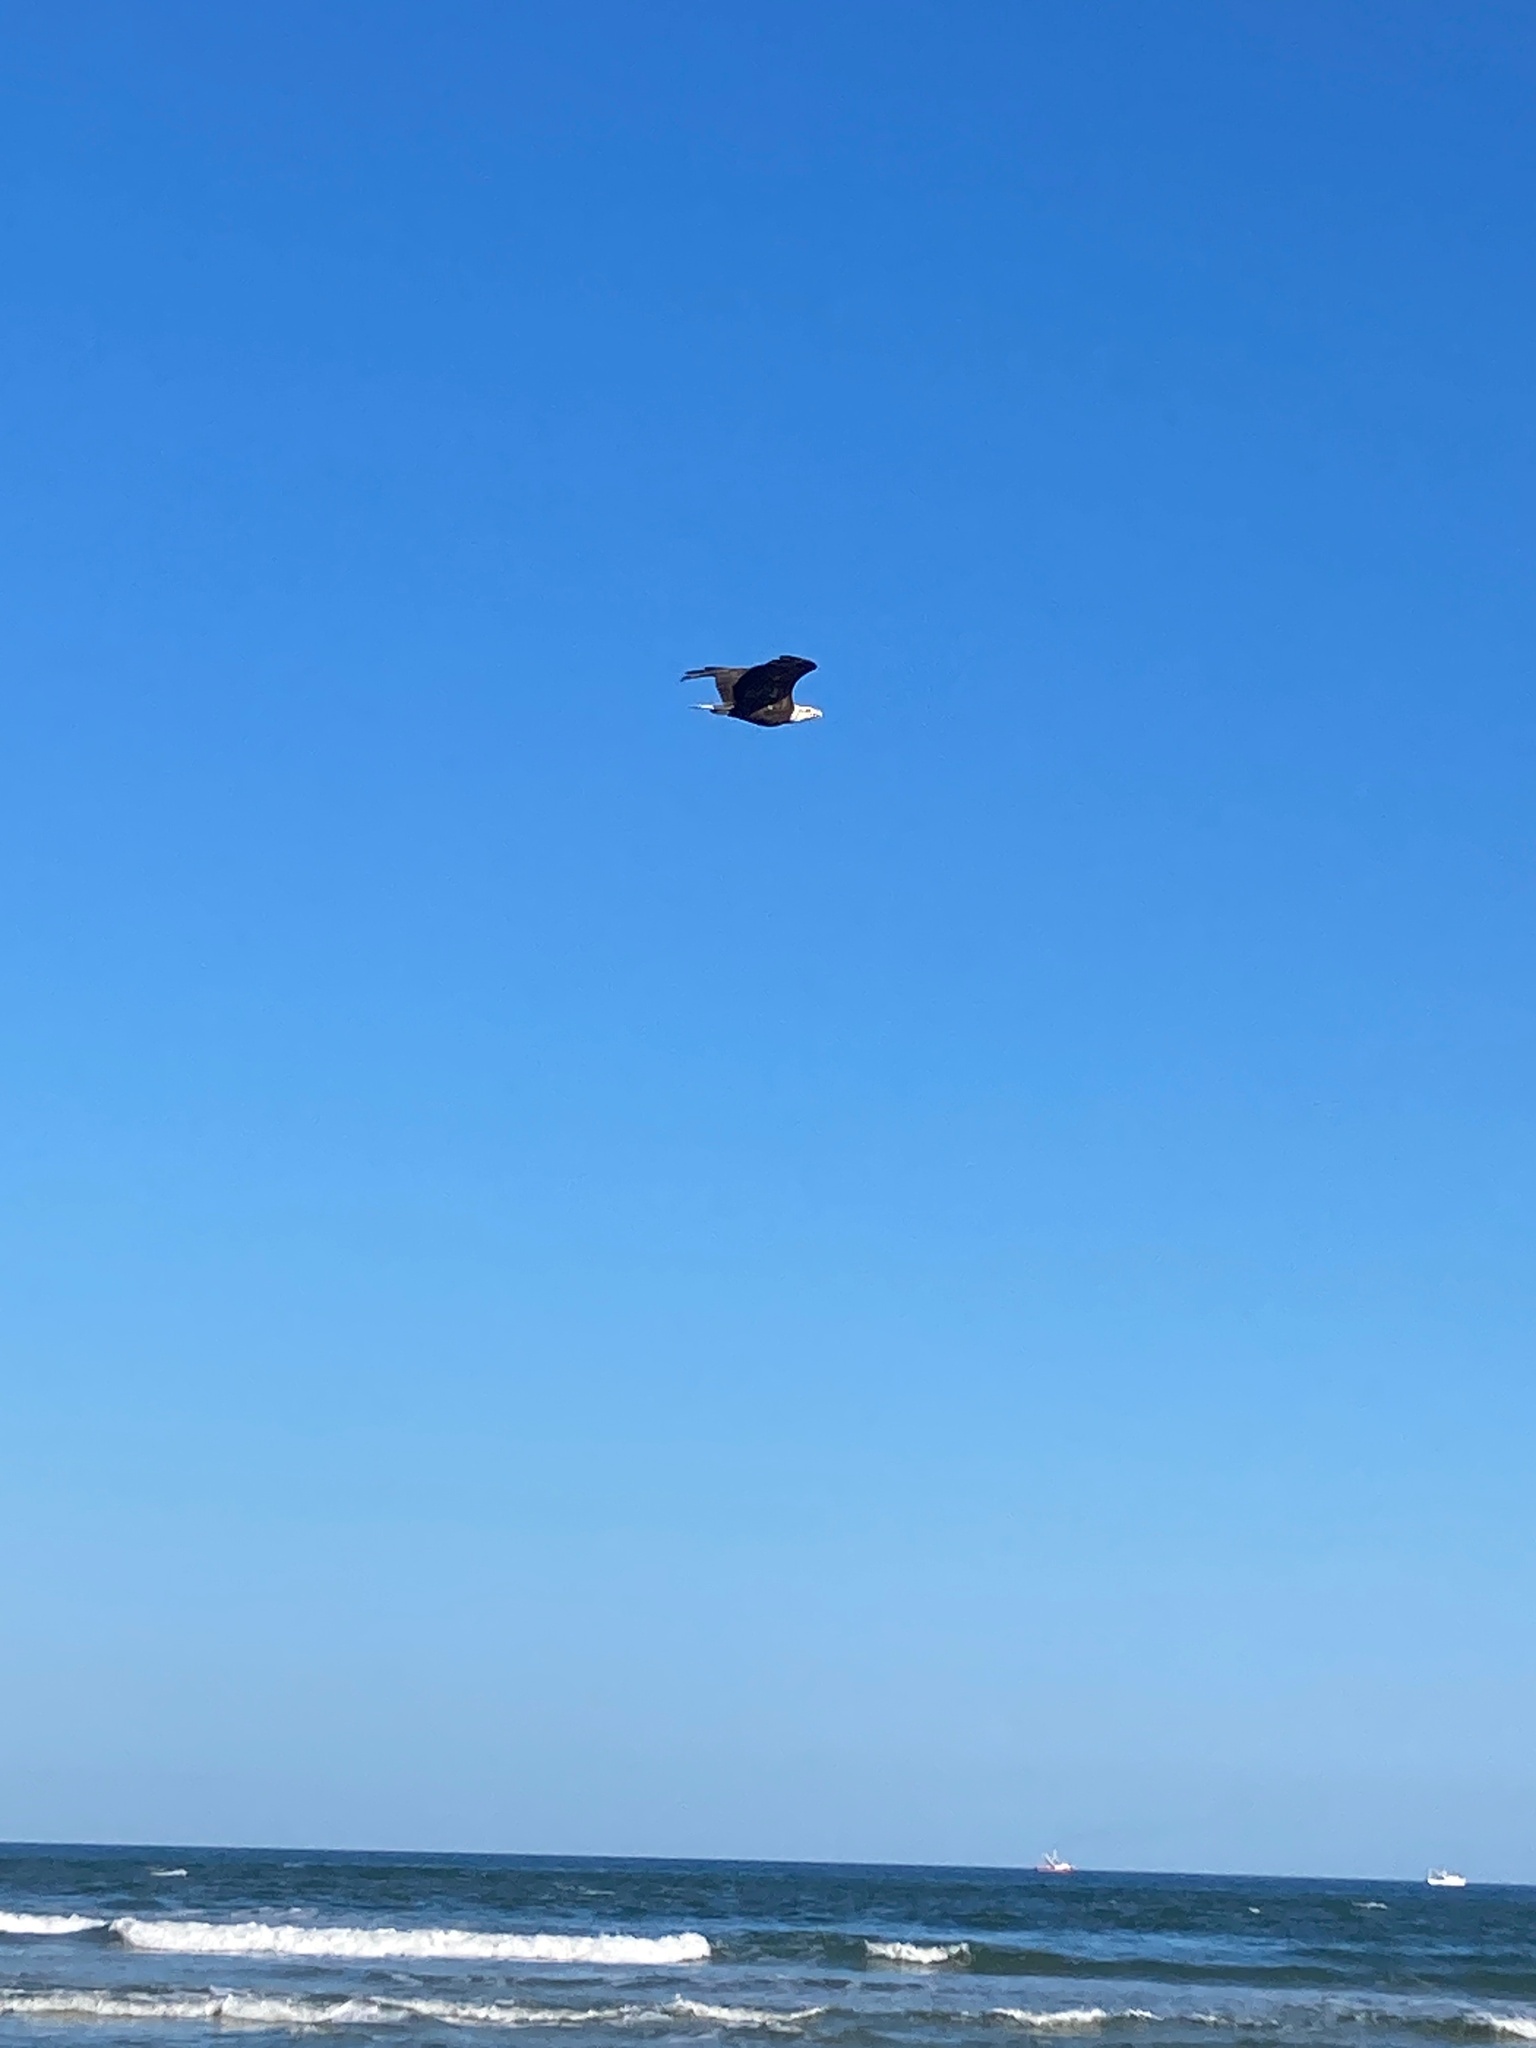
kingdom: Animalia
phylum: Chordata
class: Aves
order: Accipitriformes
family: Accipitridae
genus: Haliaeetus
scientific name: Haliaeetus leucocephalus
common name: Bald eagle
